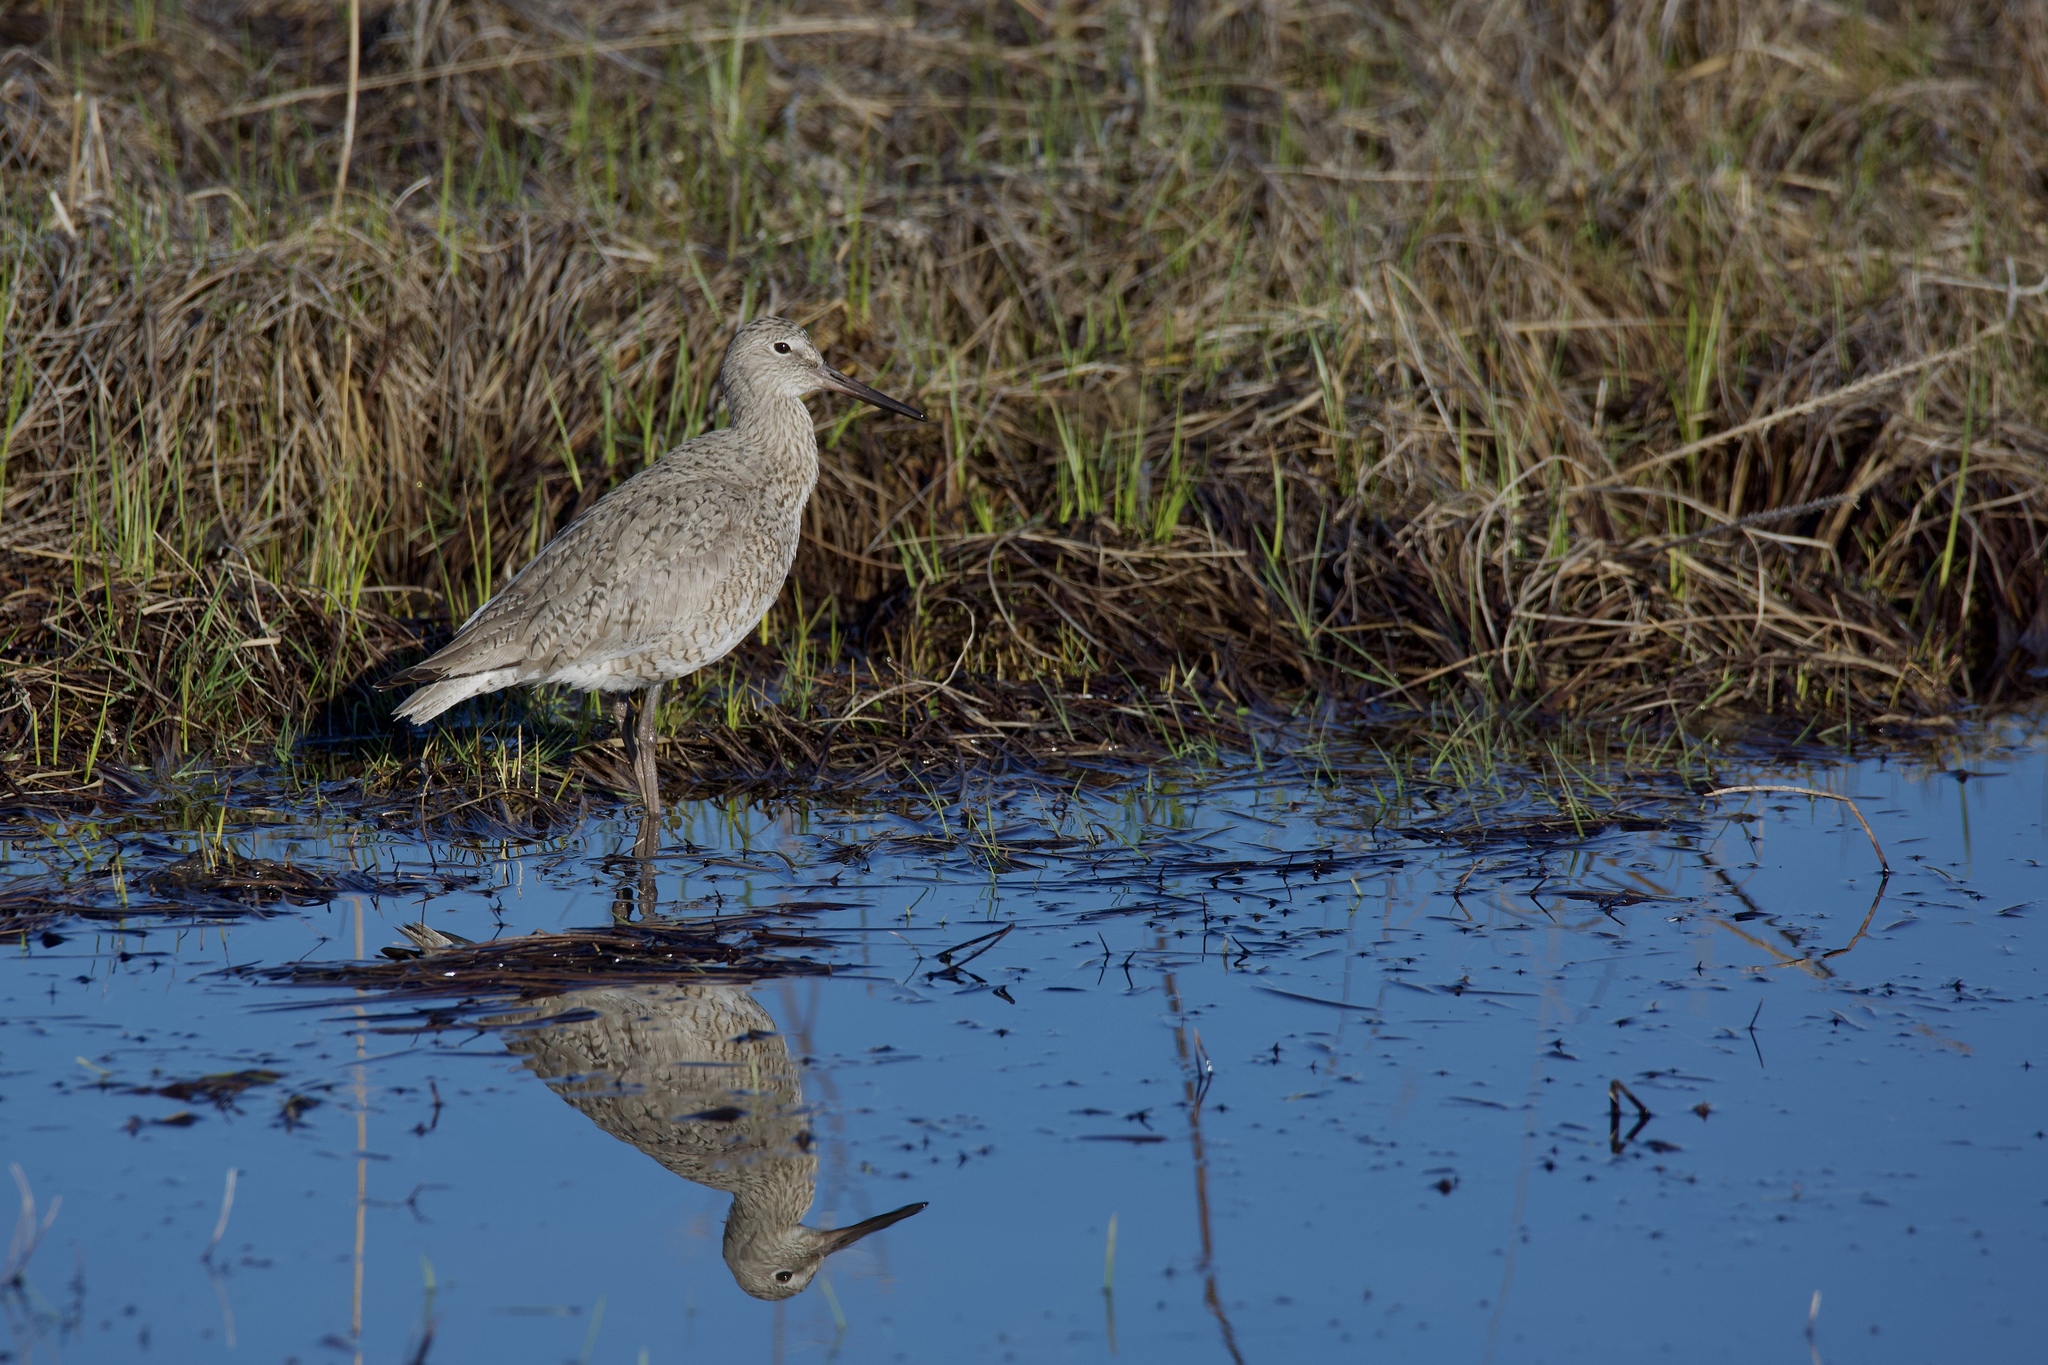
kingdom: Animalia
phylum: Chordata
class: Aves
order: Charadriiformes
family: Scolopacidae
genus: Tringa
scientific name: Tringa semipalmata
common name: Willet
